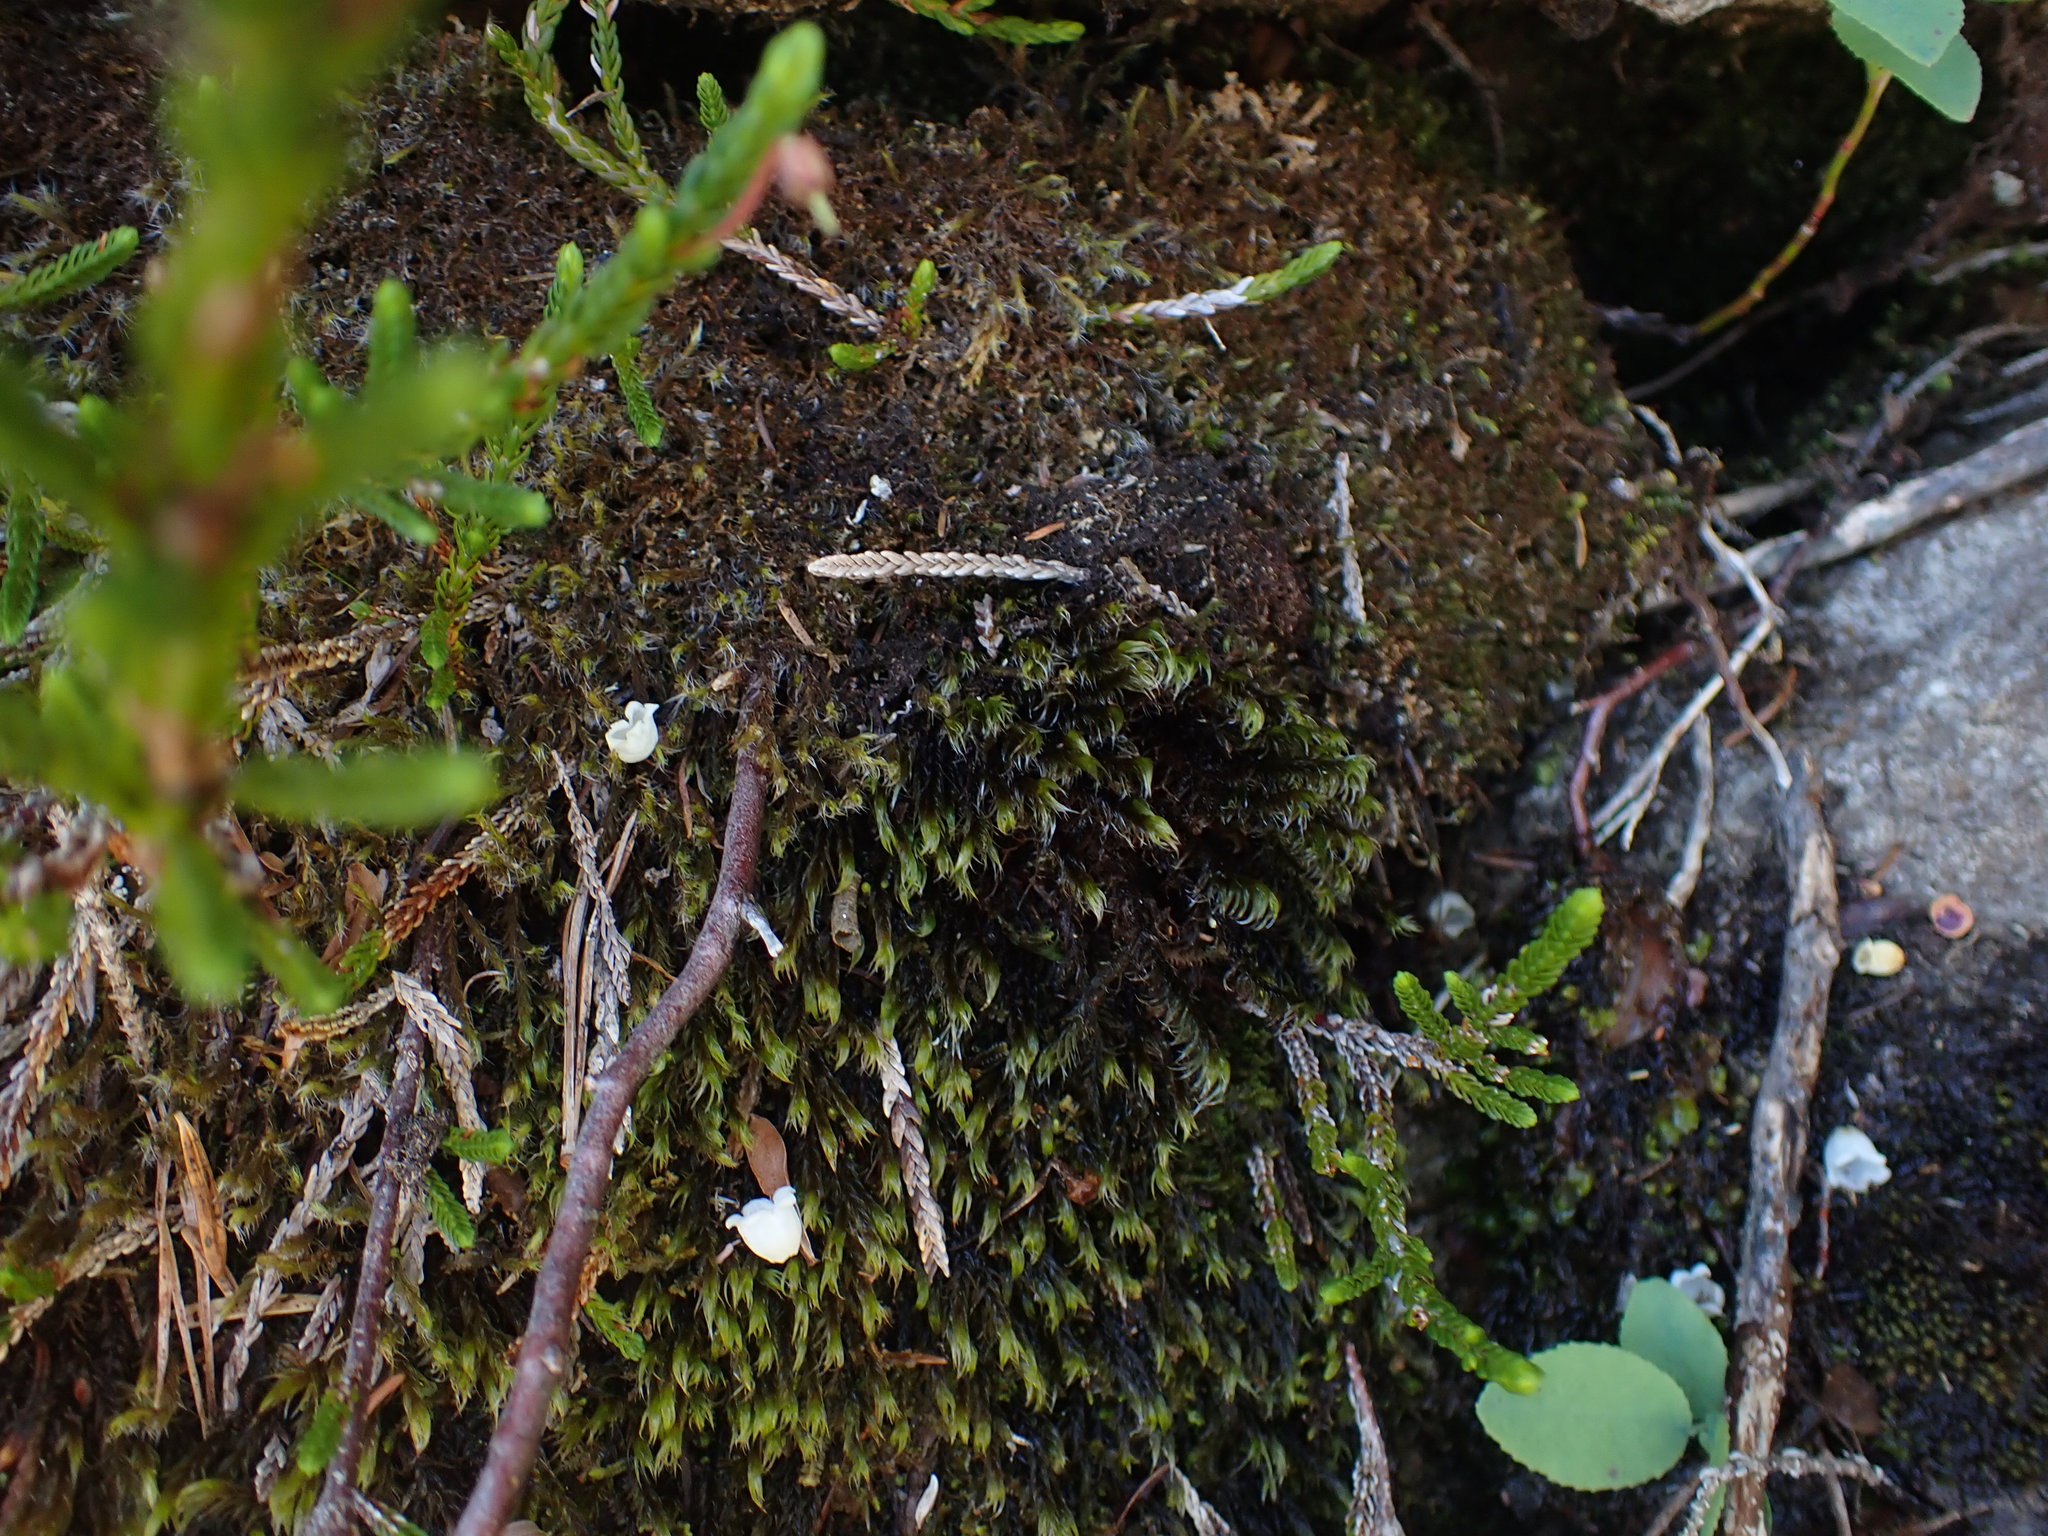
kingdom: Plantae
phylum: Bryophyta
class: Bryopsida
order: Grimmiales
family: Grimmiaceae
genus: Bucklandiella
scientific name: Bucklandiella lawtonae
